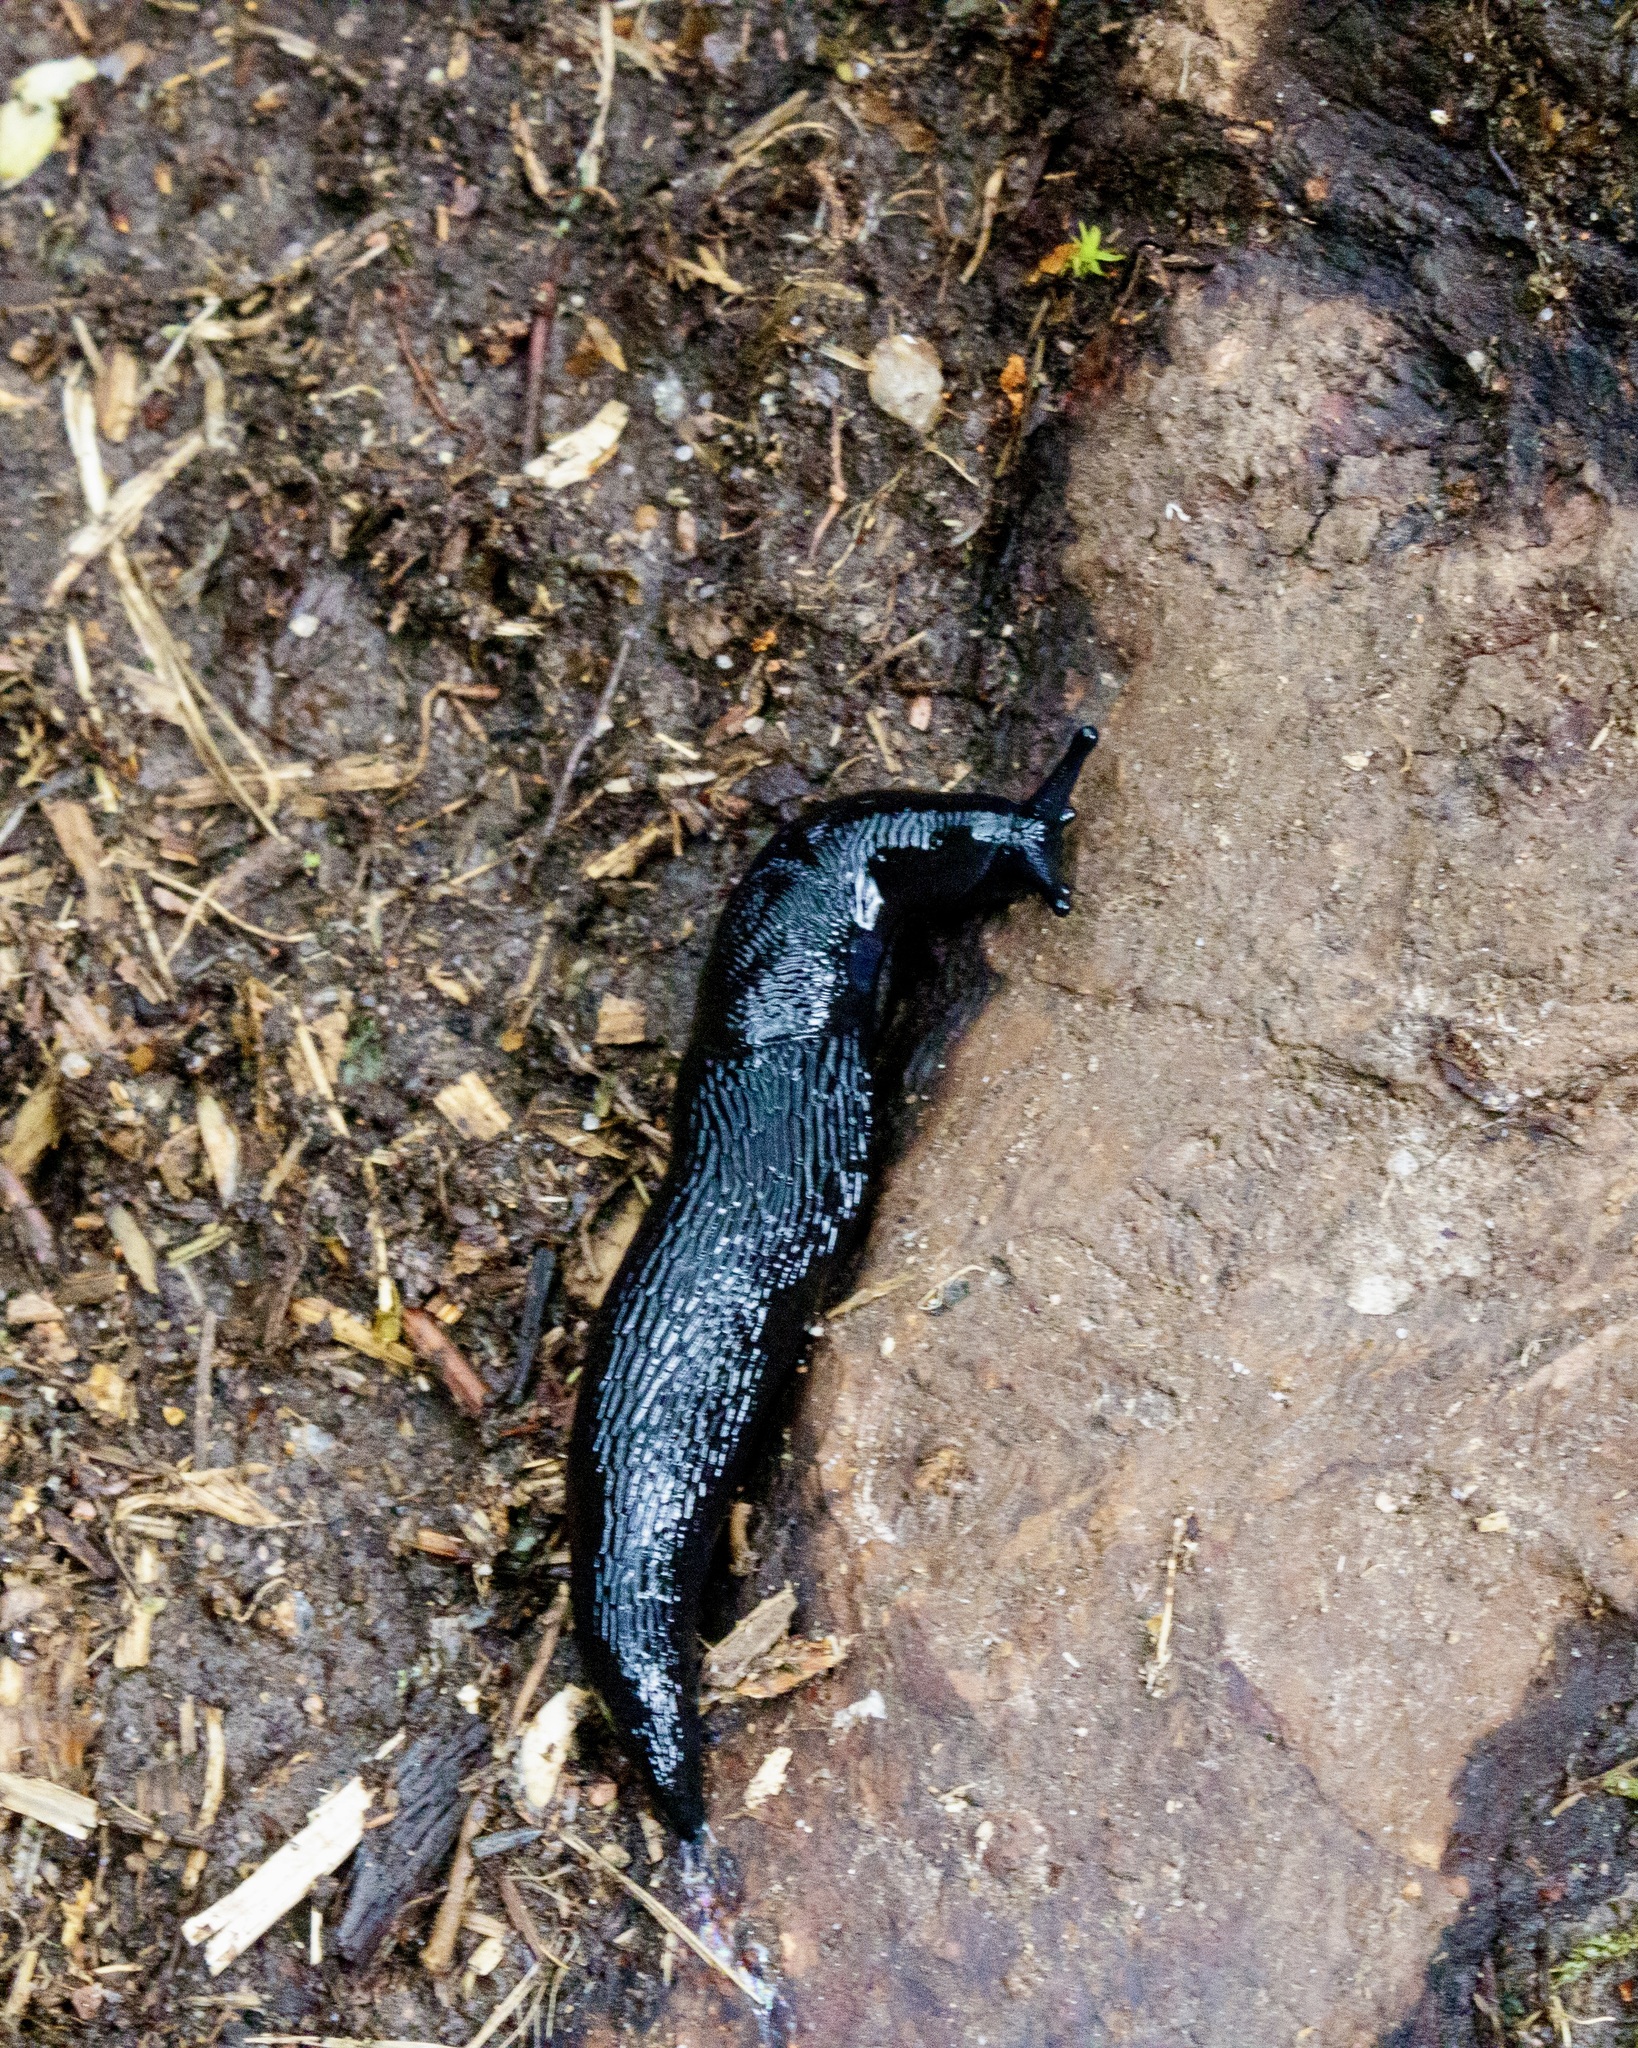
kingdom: Animalia
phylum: Mollusca
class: Gastropoda
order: Stylommatophora
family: Limacidae
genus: Turcomilax
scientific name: Turcomilax turkestanus
